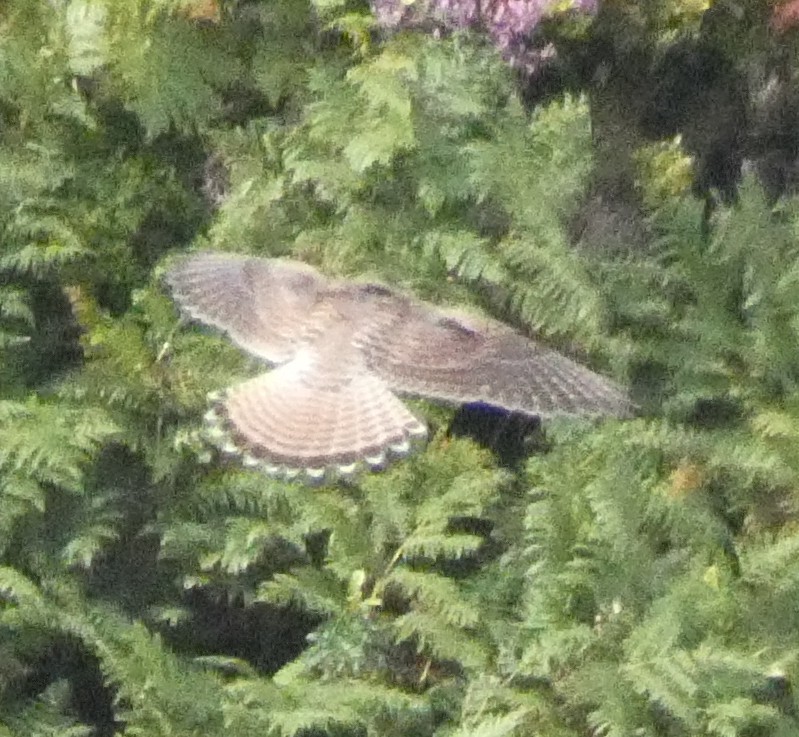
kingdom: Animalia
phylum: Chordata
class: Aves
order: Falconiformes
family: Falconidae
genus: Falco
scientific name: Falco tinnunculus
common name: Common kestrel
